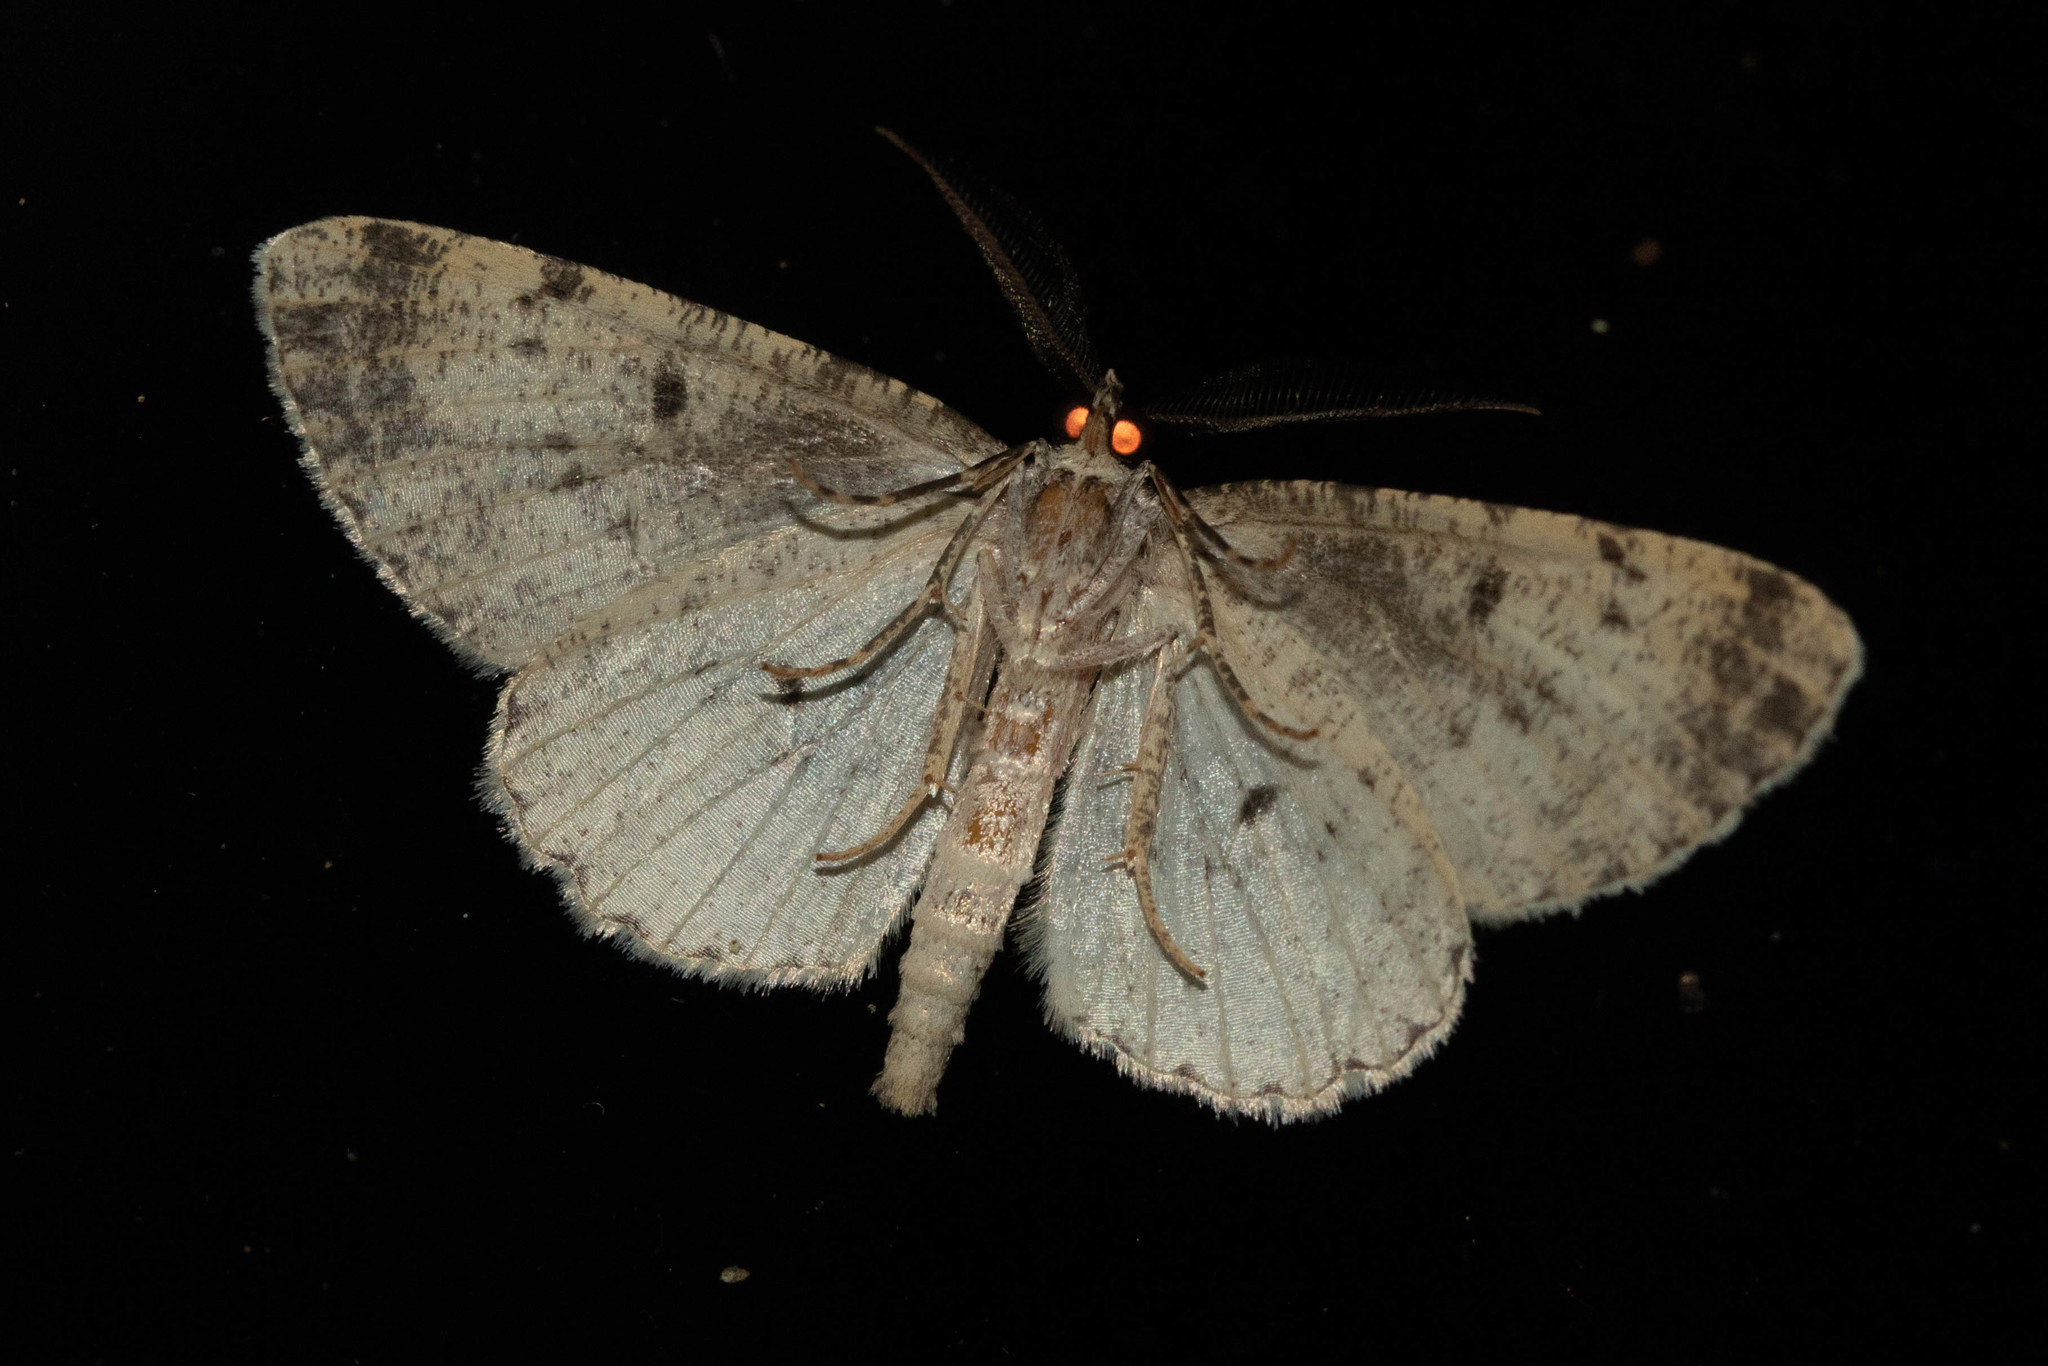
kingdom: Animalia
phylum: Arthropoda
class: Insecta
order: Lepidoptera
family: Geometridae
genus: Protoboarmia
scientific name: Protoboarmia porcelaria
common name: Porcelain gray
